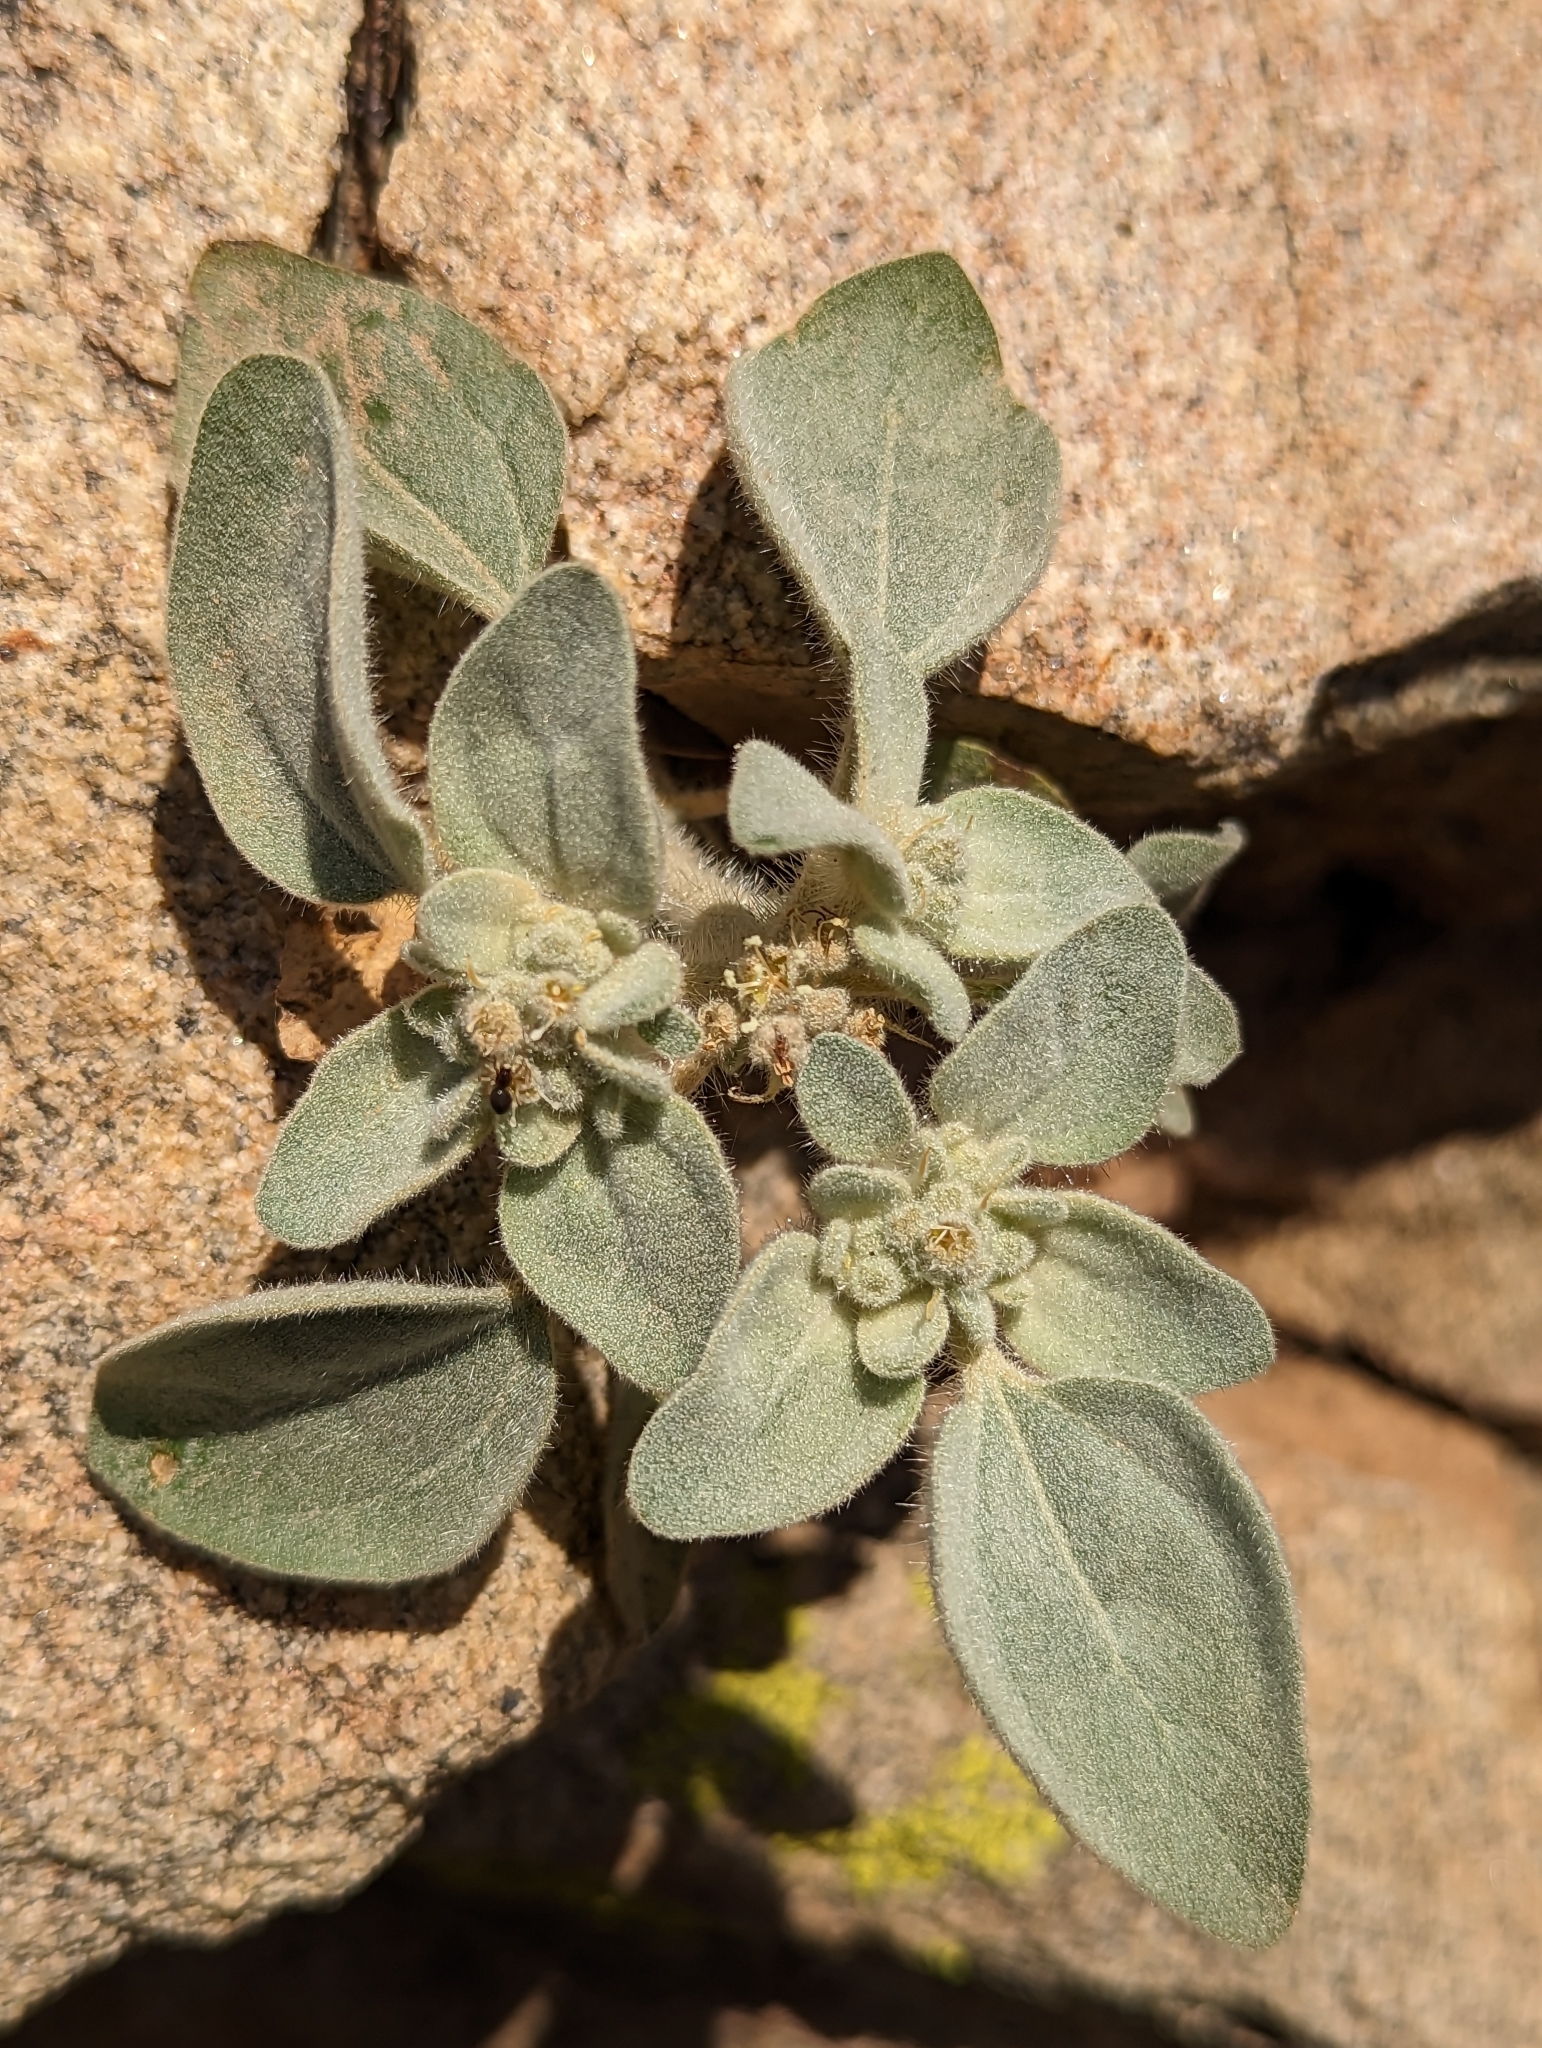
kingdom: Plantae
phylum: Tracheophyta
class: Magnoliopsida
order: Malpighiales
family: Euphorbiaceae
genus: Croton
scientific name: Croton setiger
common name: Dove weed
